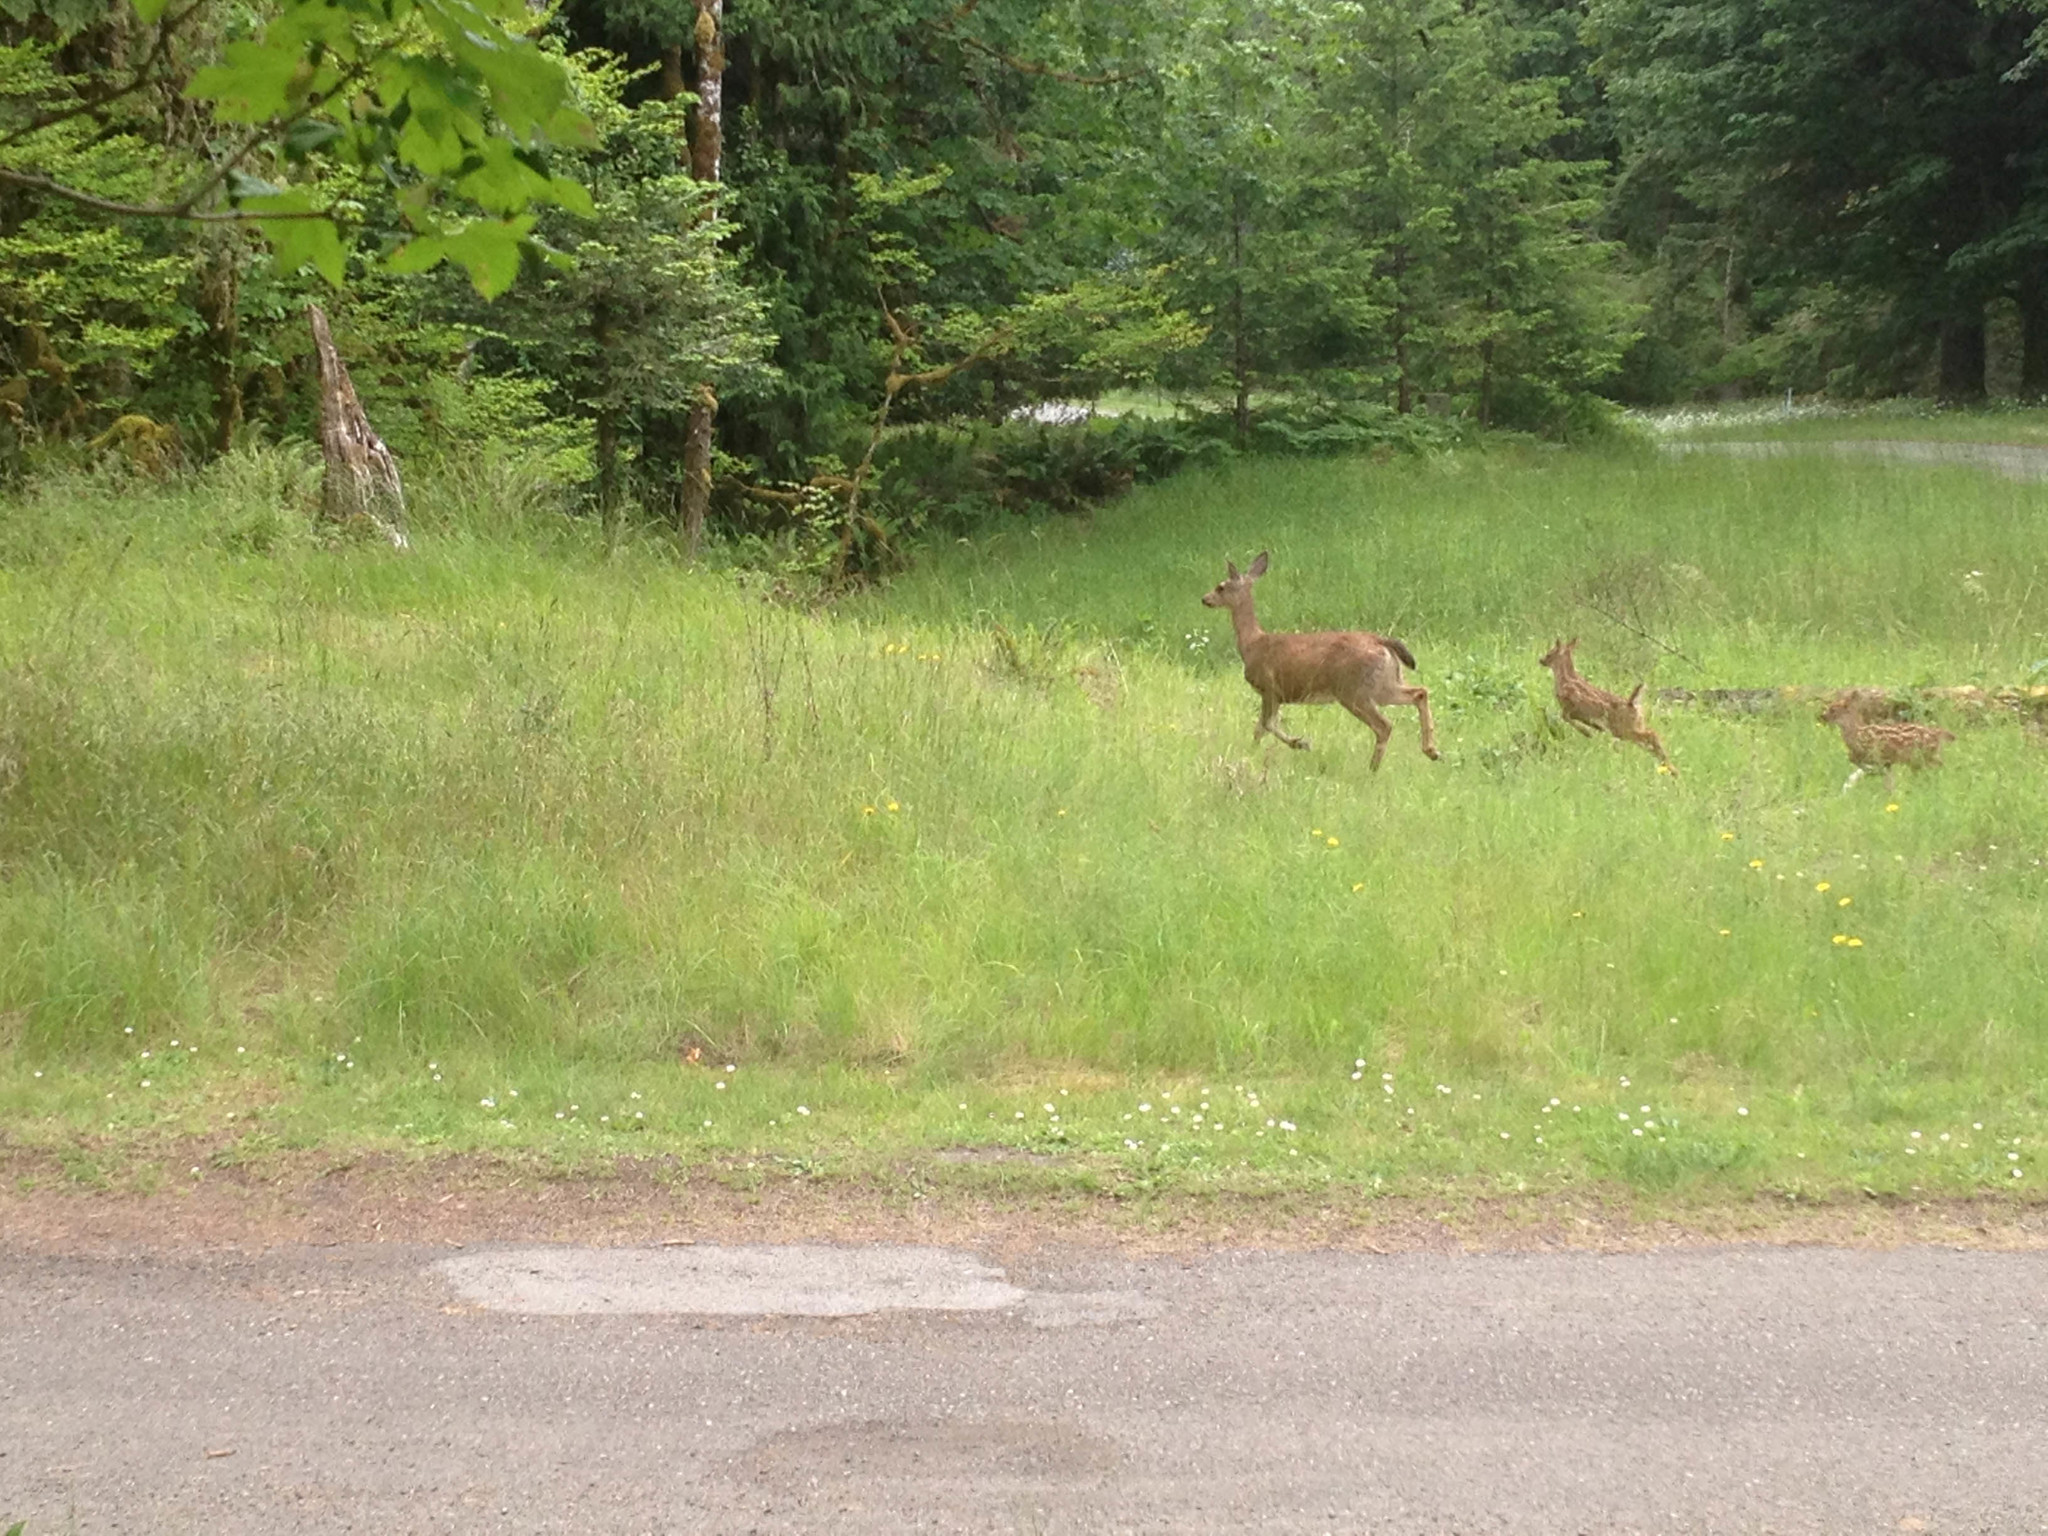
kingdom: Animalia
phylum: Chordata
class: Mammalia
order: Artiodactyla
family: Cervidae
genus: Odocoileus
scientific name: Odocoileus hemionus
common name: Mule deer
